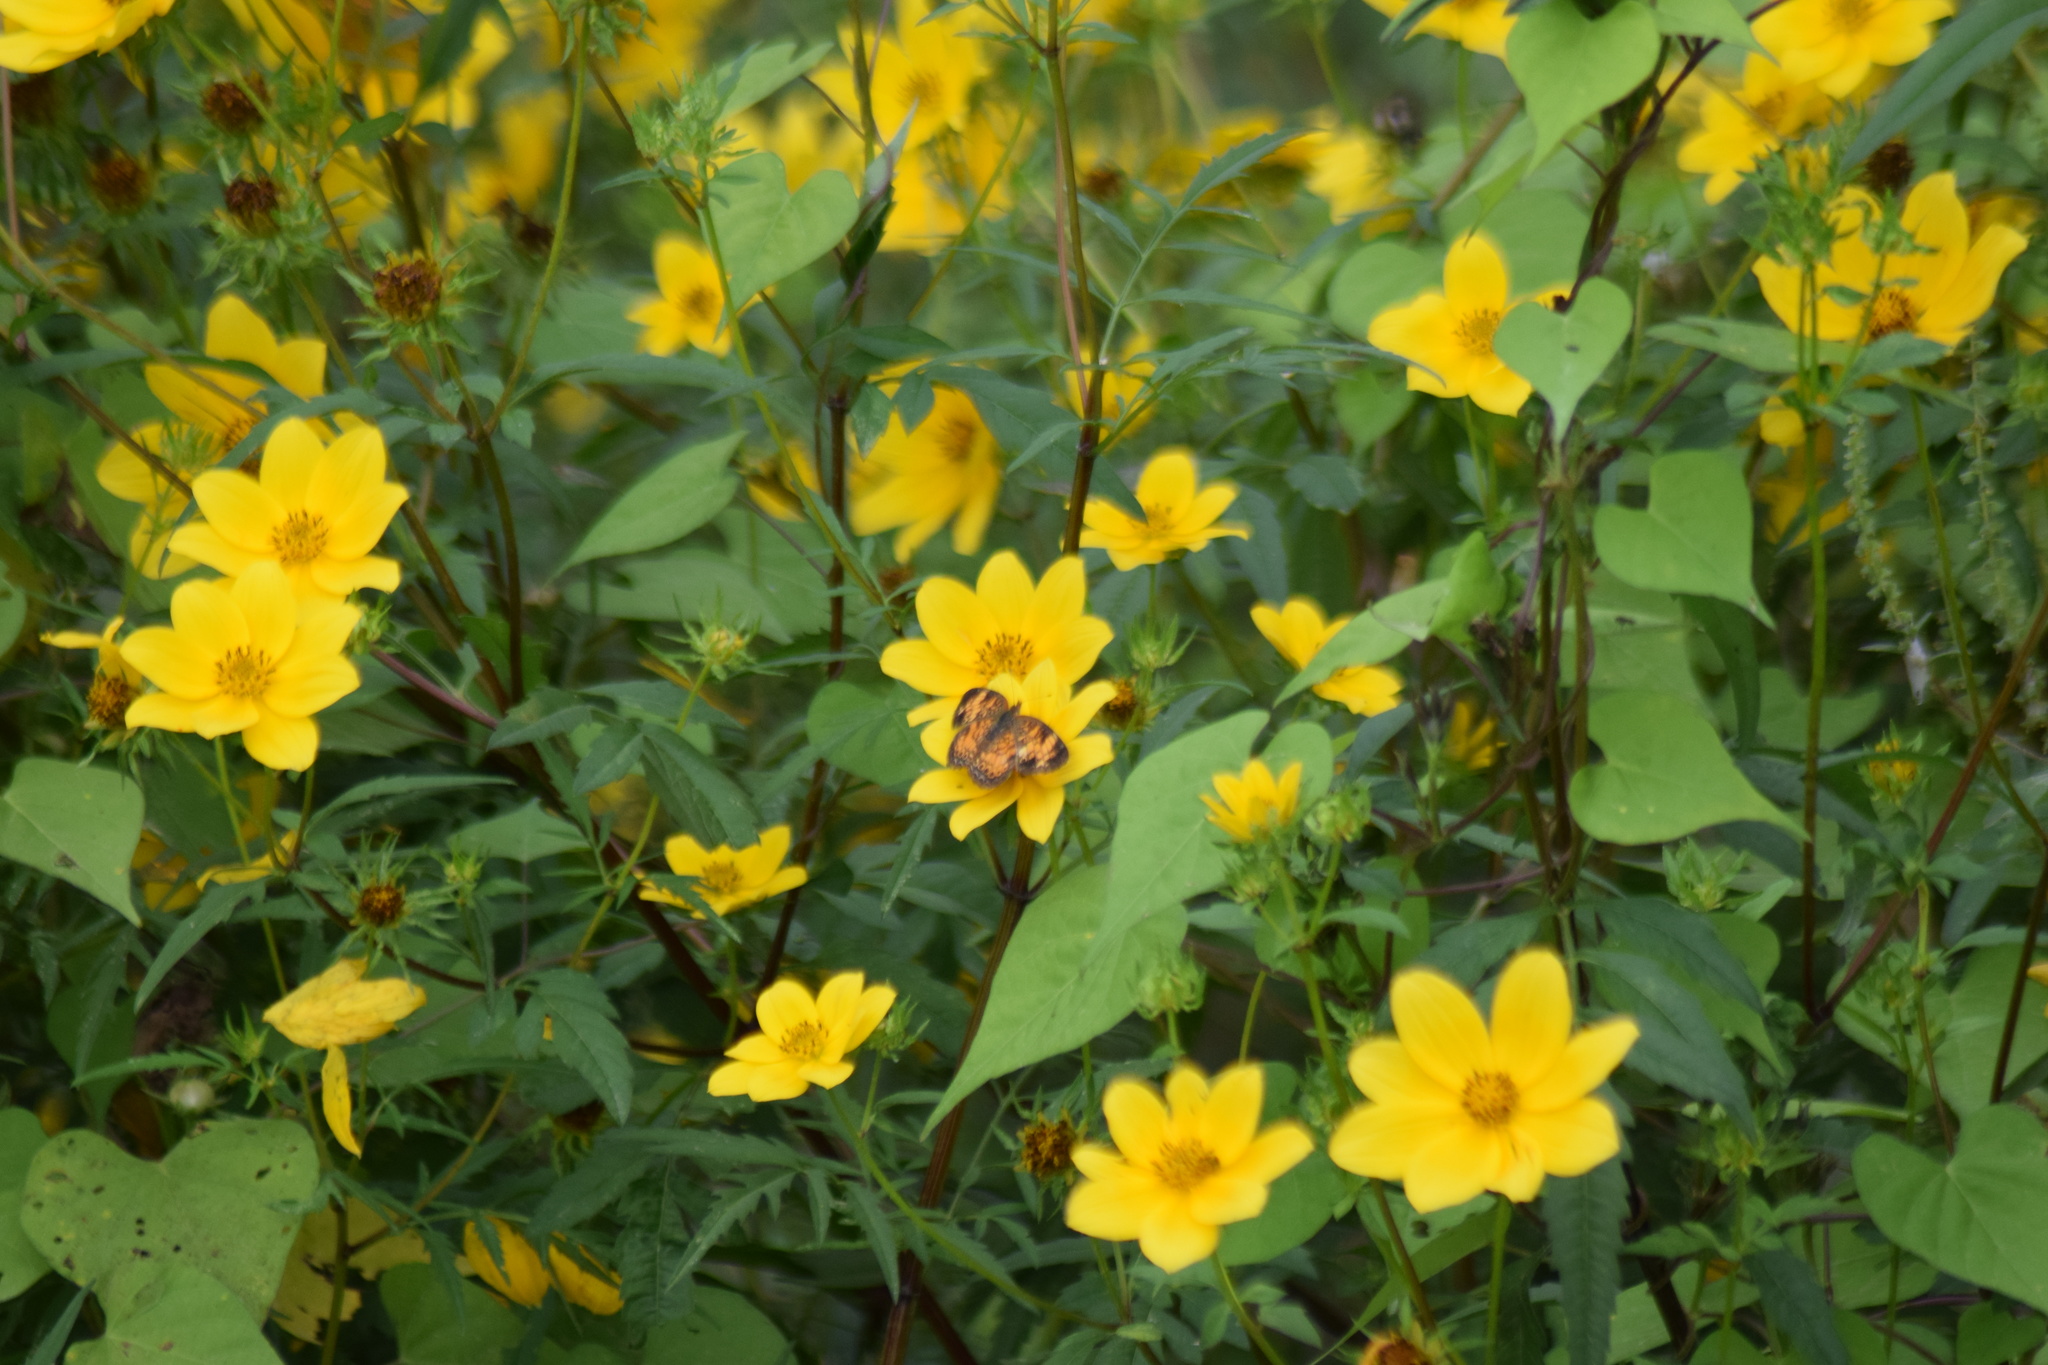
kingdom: Animalia
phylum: Arthropoda
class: Insecta
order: Lepidoptera
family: Nymphalidae
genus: Phyciodes
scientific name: Phyciodes tharos
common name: Pearl crescent
